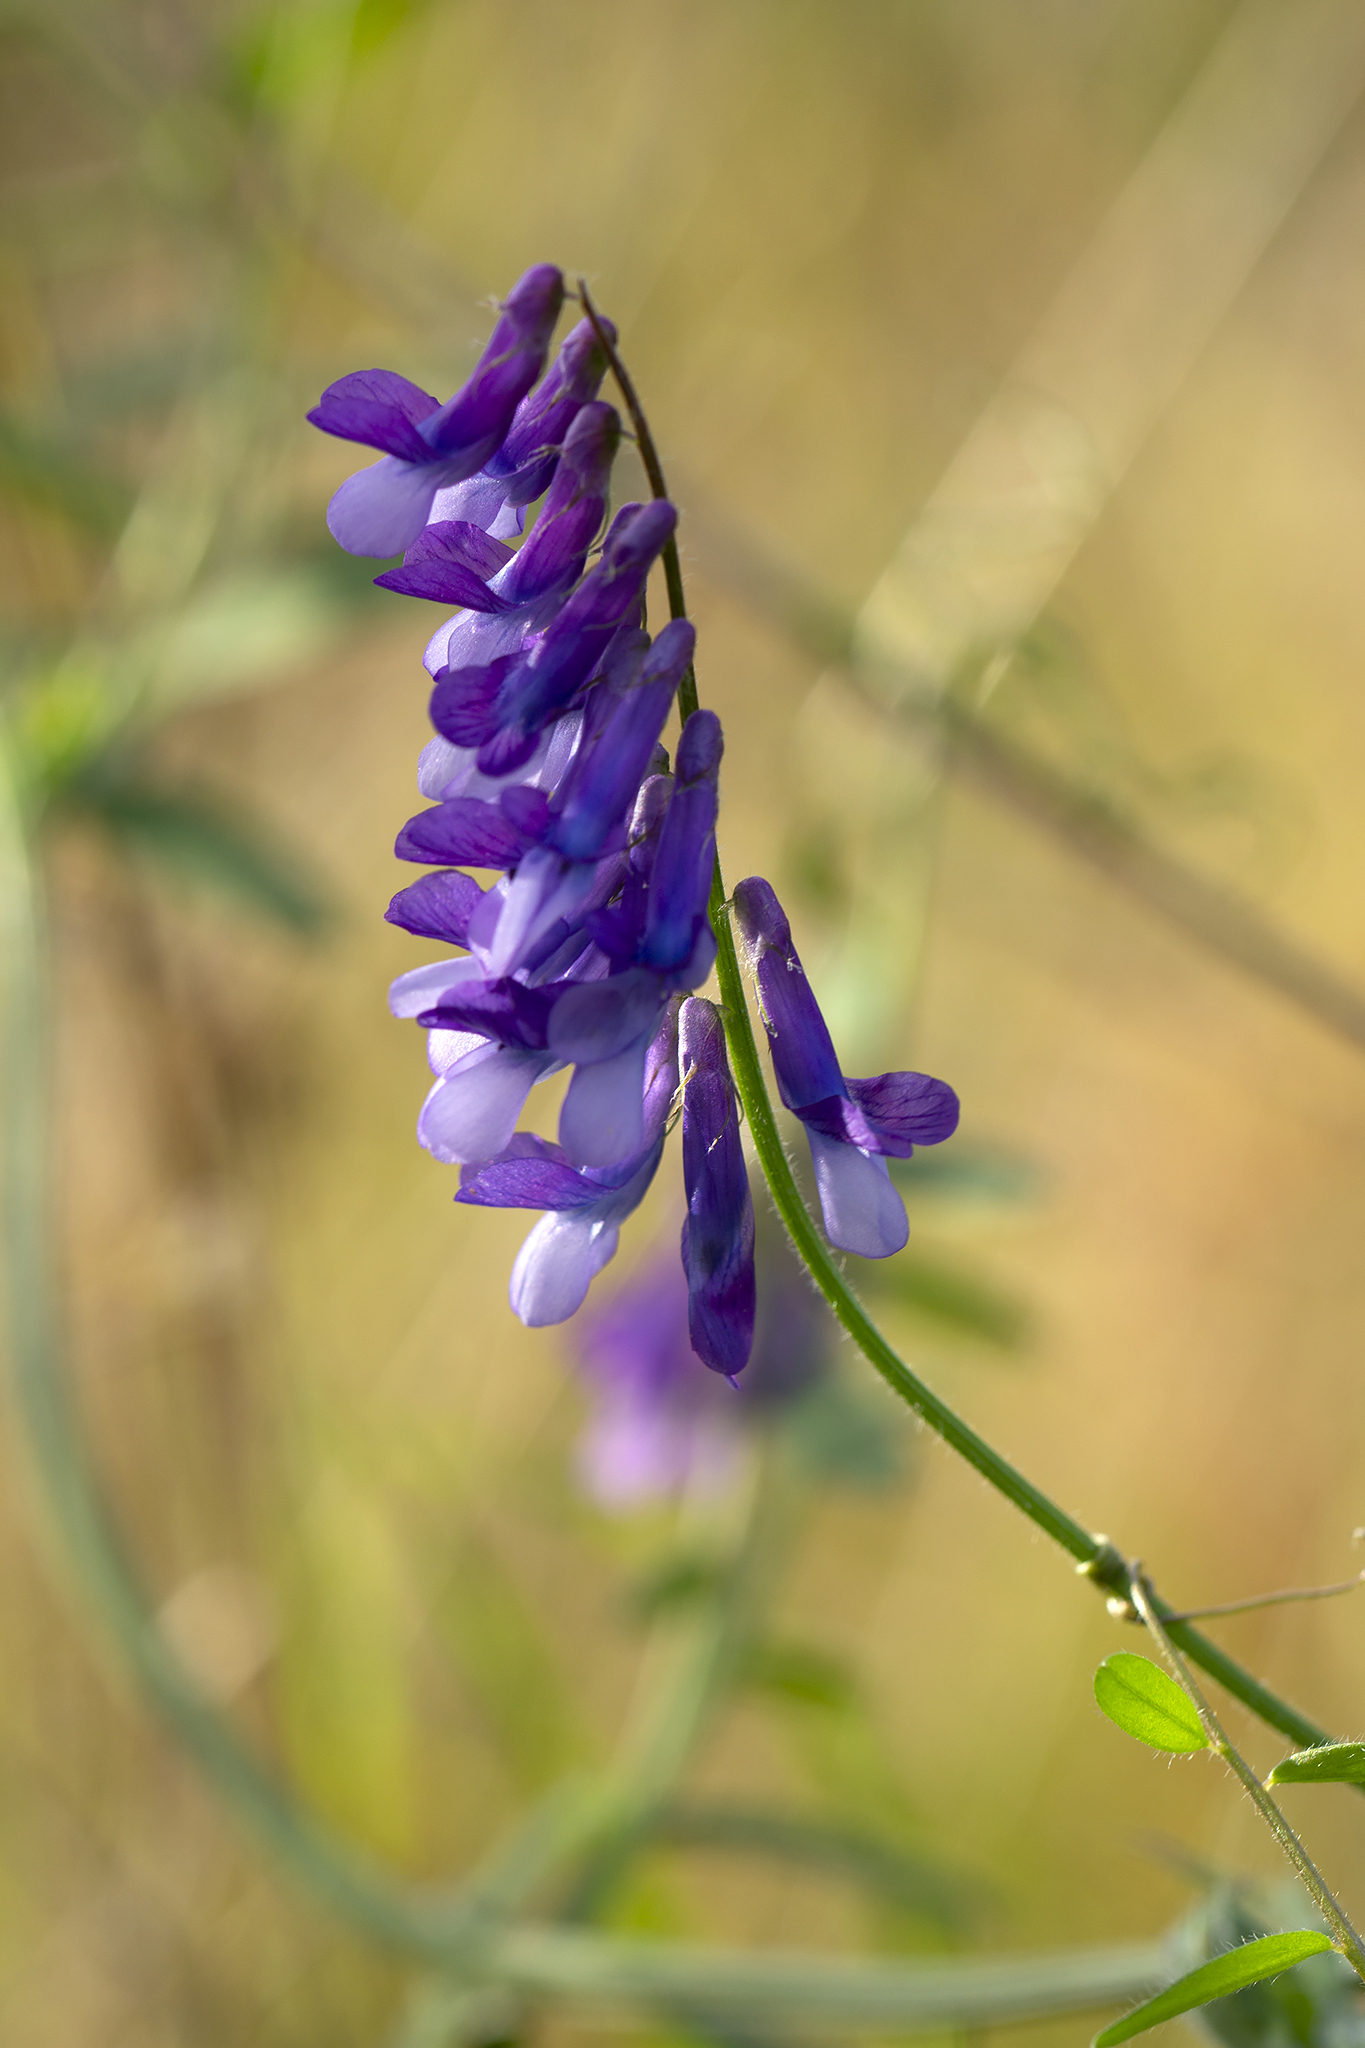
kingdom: Plantae
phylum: Tracheophyta
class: Magnoliopsida
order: Fabales
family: Fabaceae
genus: Vicia
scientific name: Vicia villosa
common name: Fodder vetch
